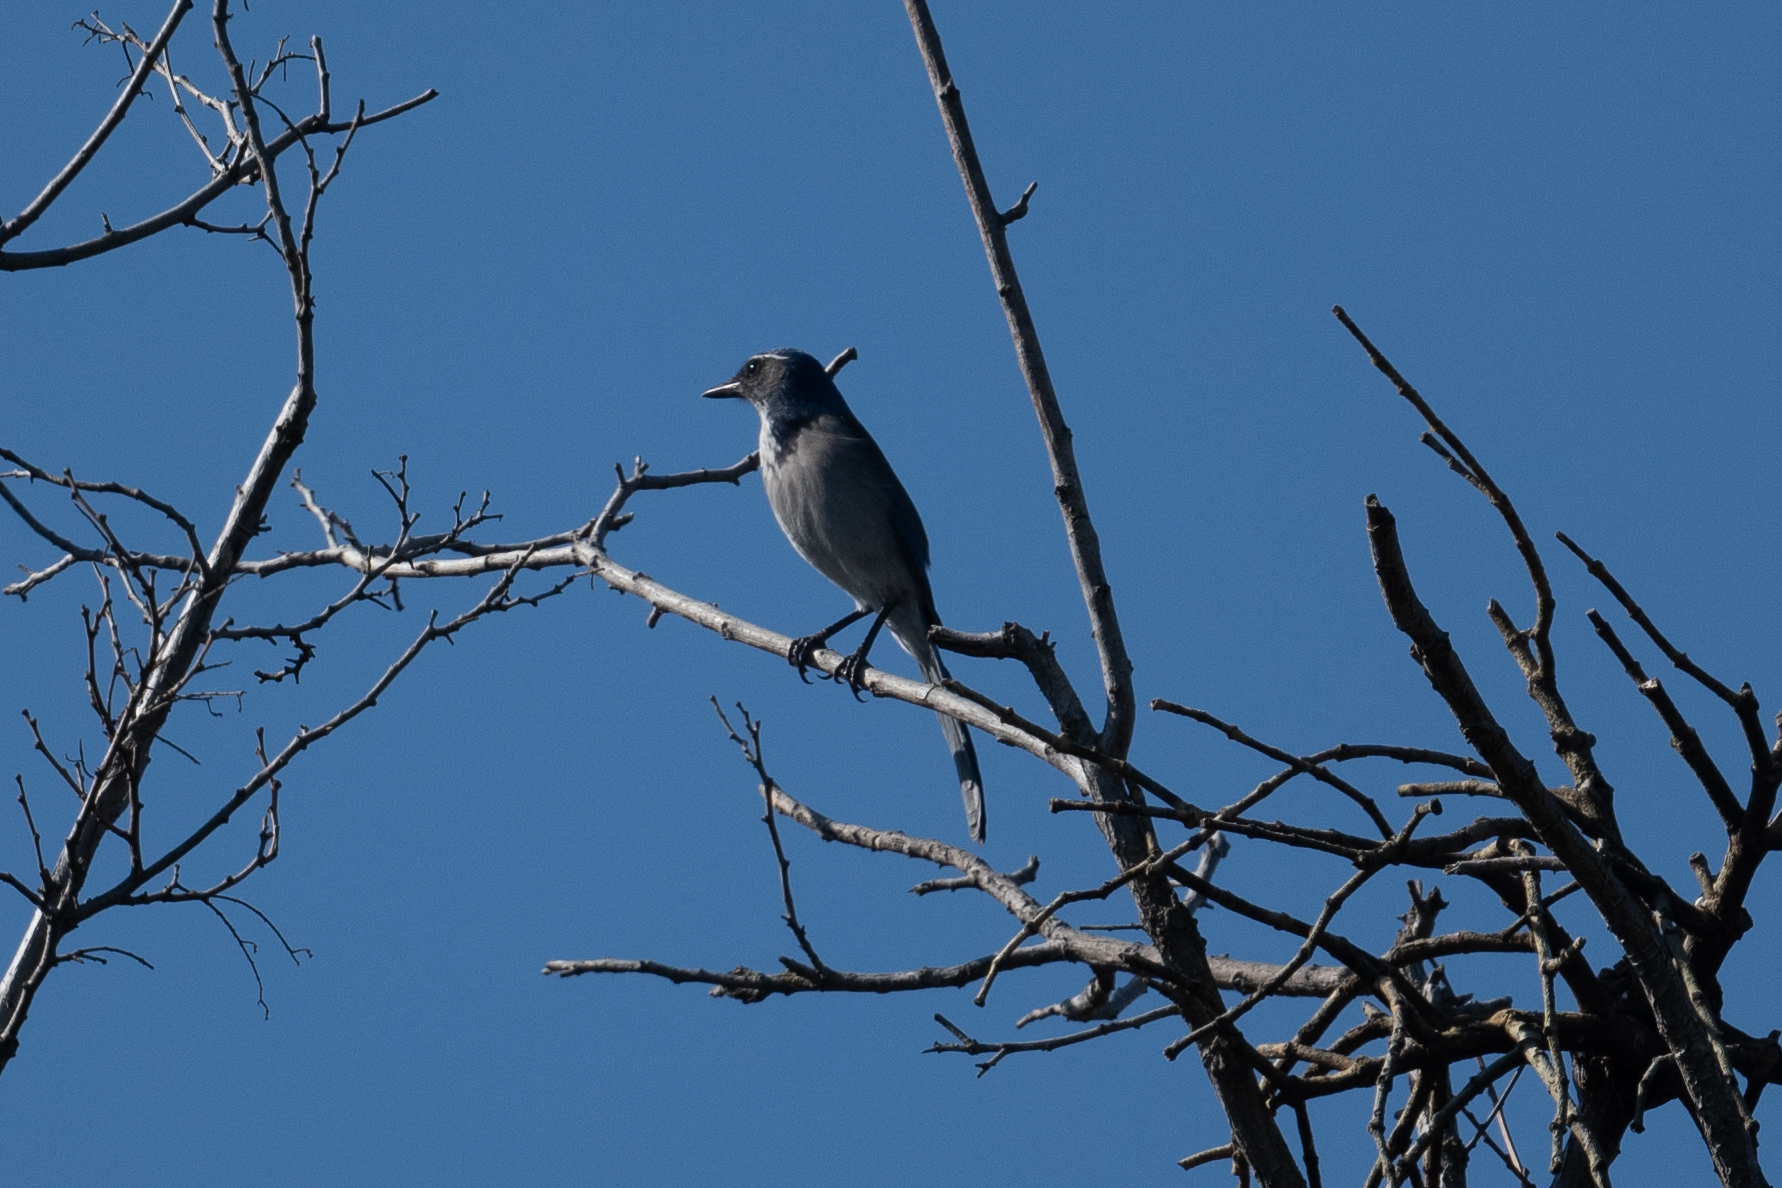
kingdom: Animalia
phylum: Chordata
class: Aves
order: Passeriformes
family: Corvidae
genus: Aphelocoma
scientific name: Aphelocoma californica
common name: California scrub-jay
